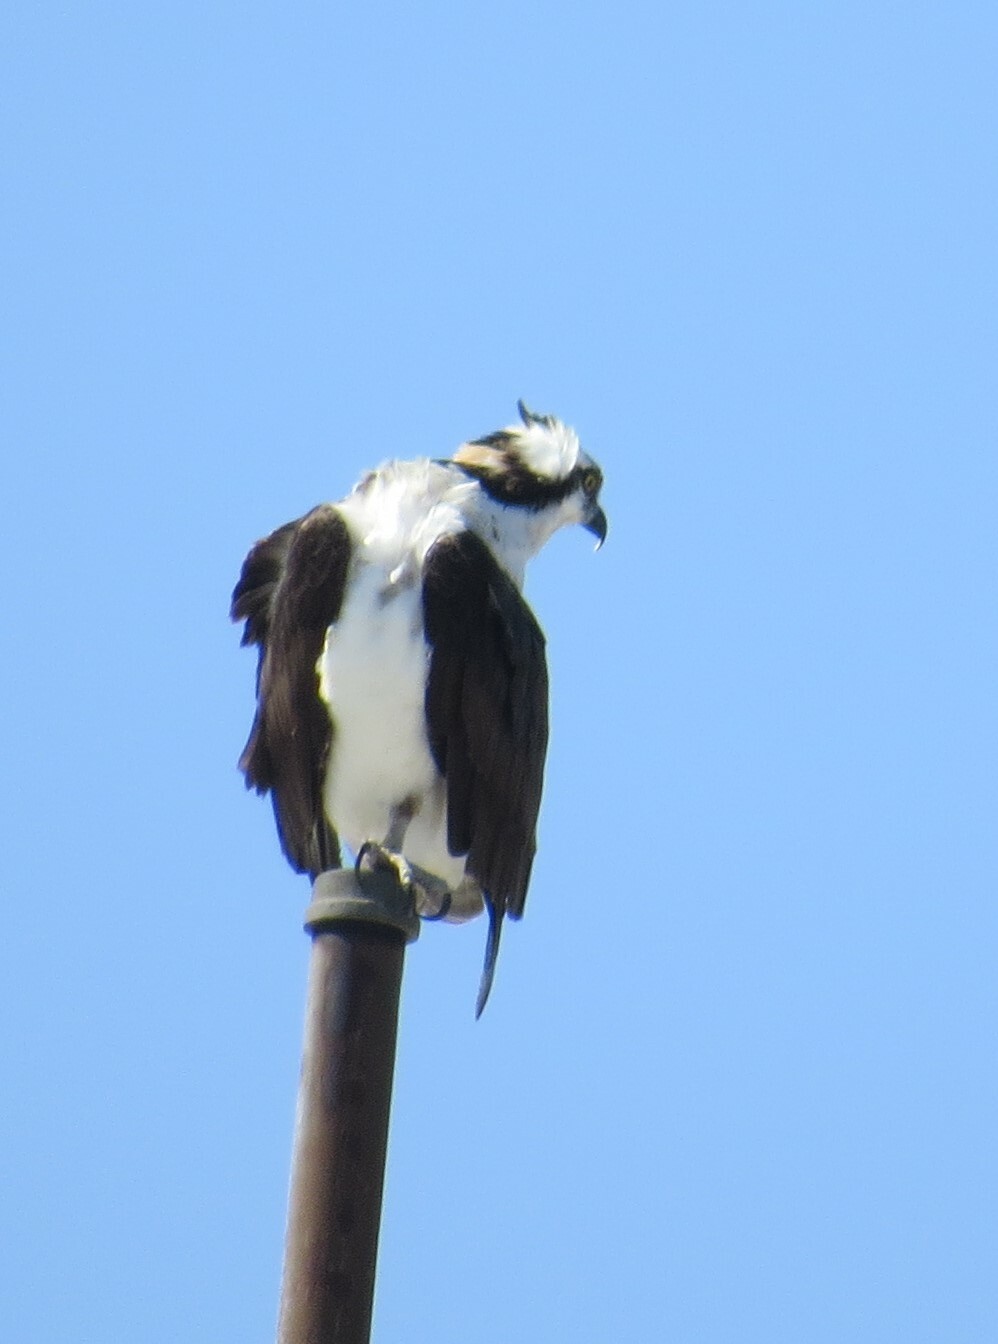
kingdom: Animalia
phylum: Chordata
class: Aves
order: Accipitriformes
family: Pandionidae
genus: Pandion
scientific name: Pandion haliaetus
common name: Osprey
